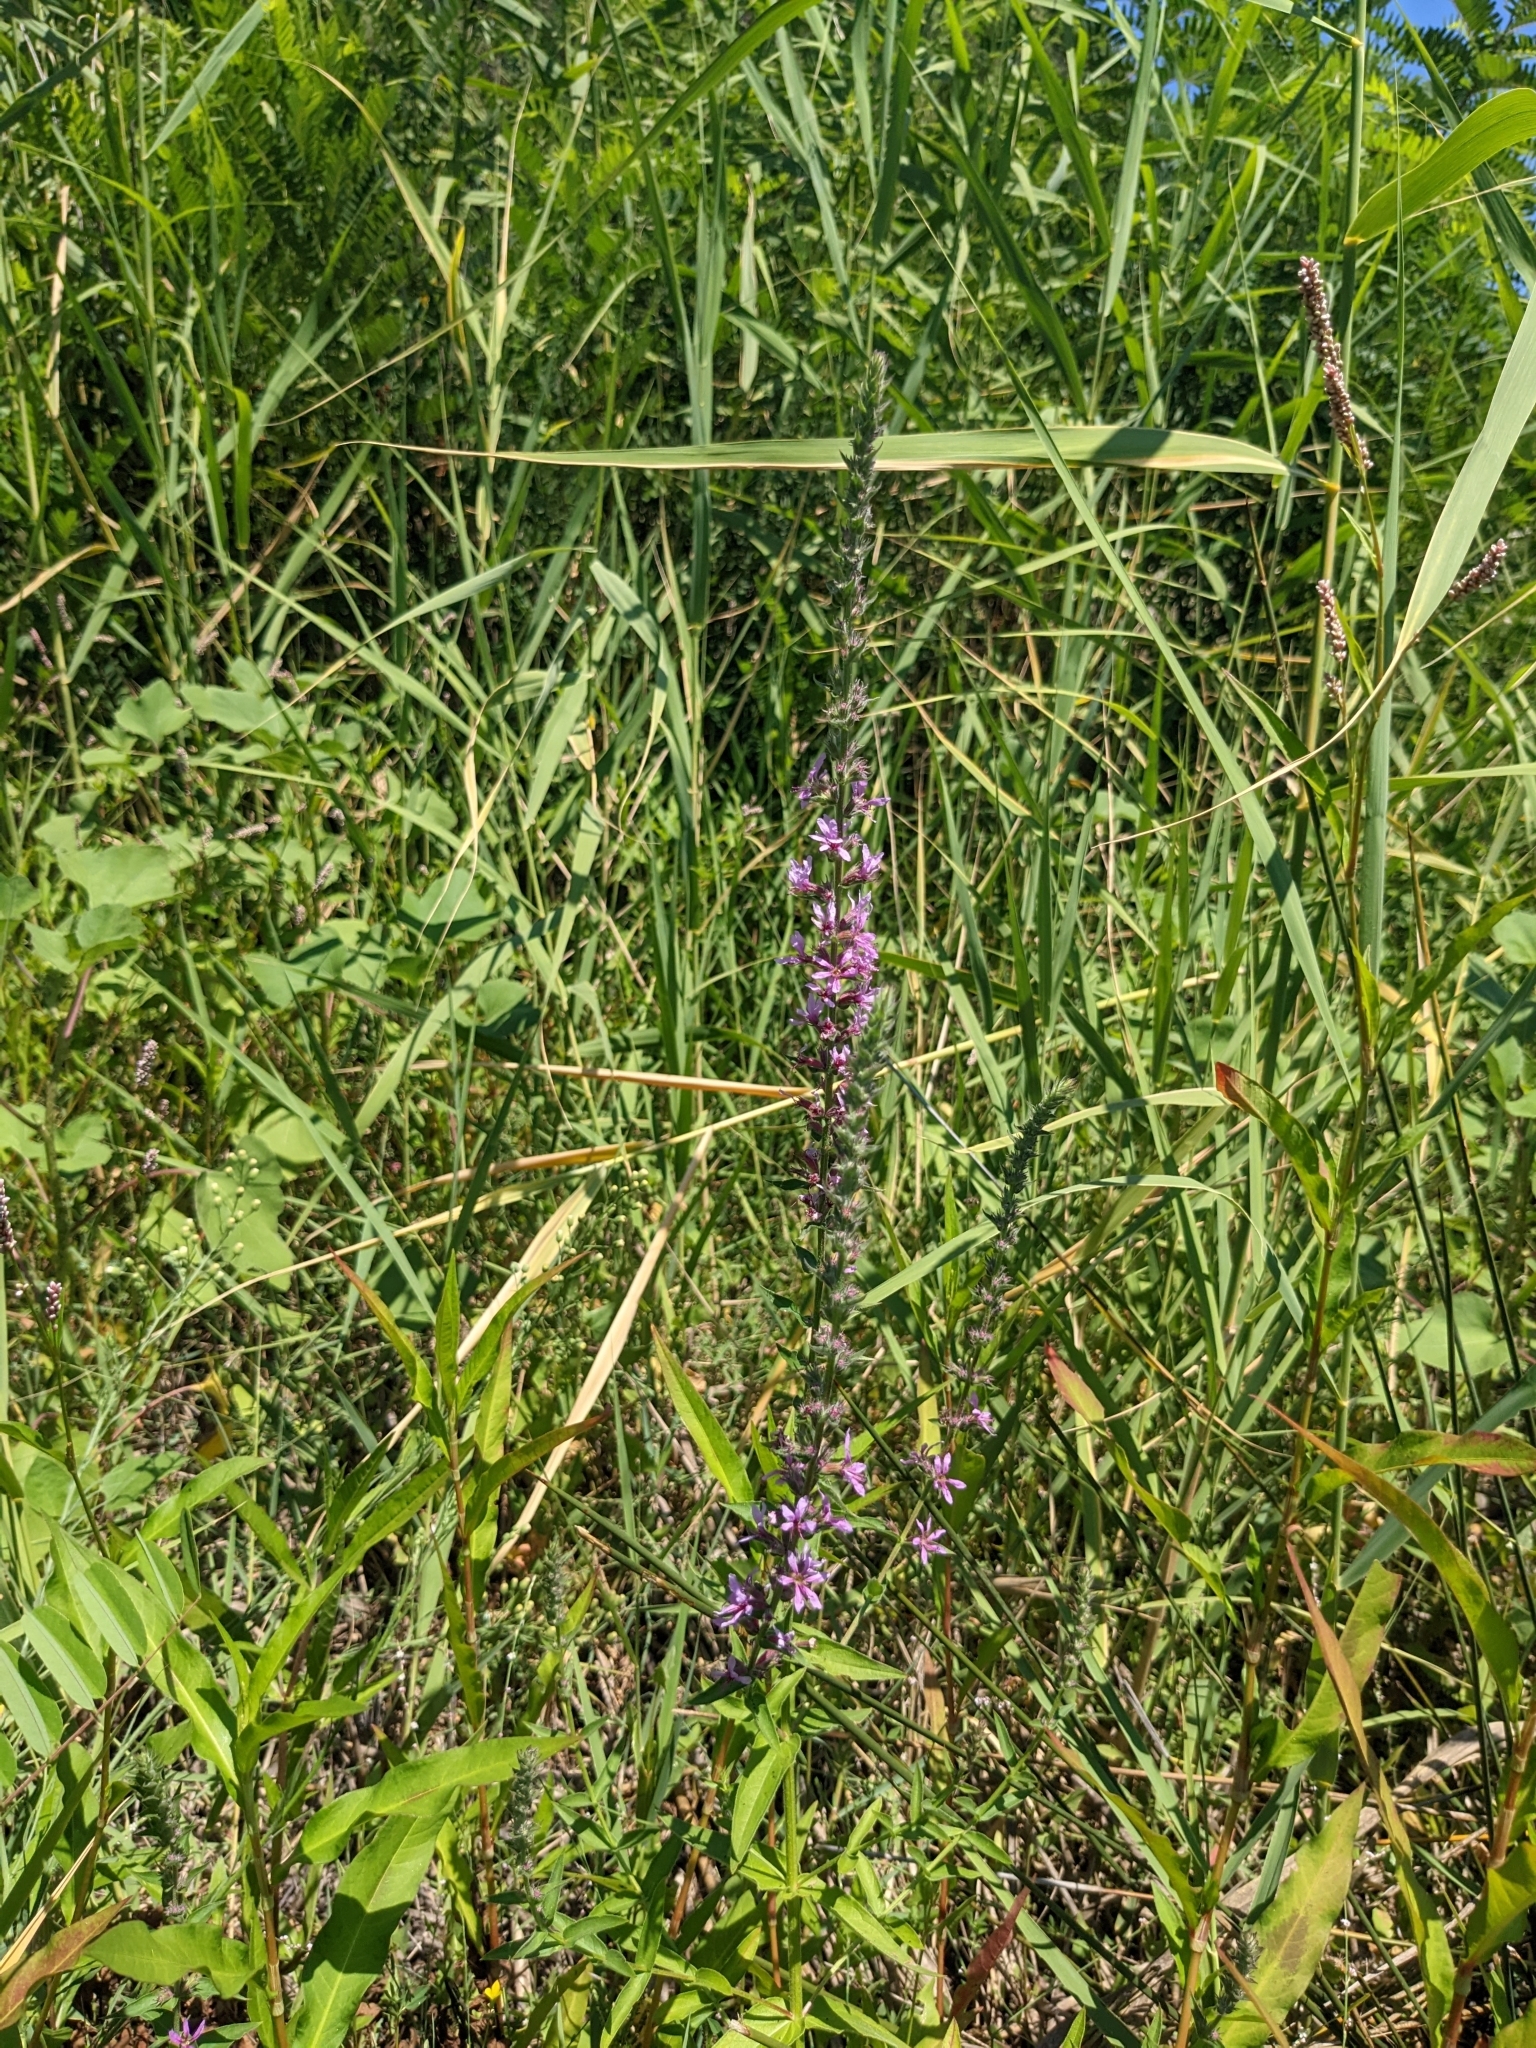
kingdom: Plantae
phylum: Tracheophyta
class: Magnoliopsida
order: Myrtales
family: Lythraceae
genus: Lythrum
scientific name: Lythrum salicaria
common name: Purple loosestrife
